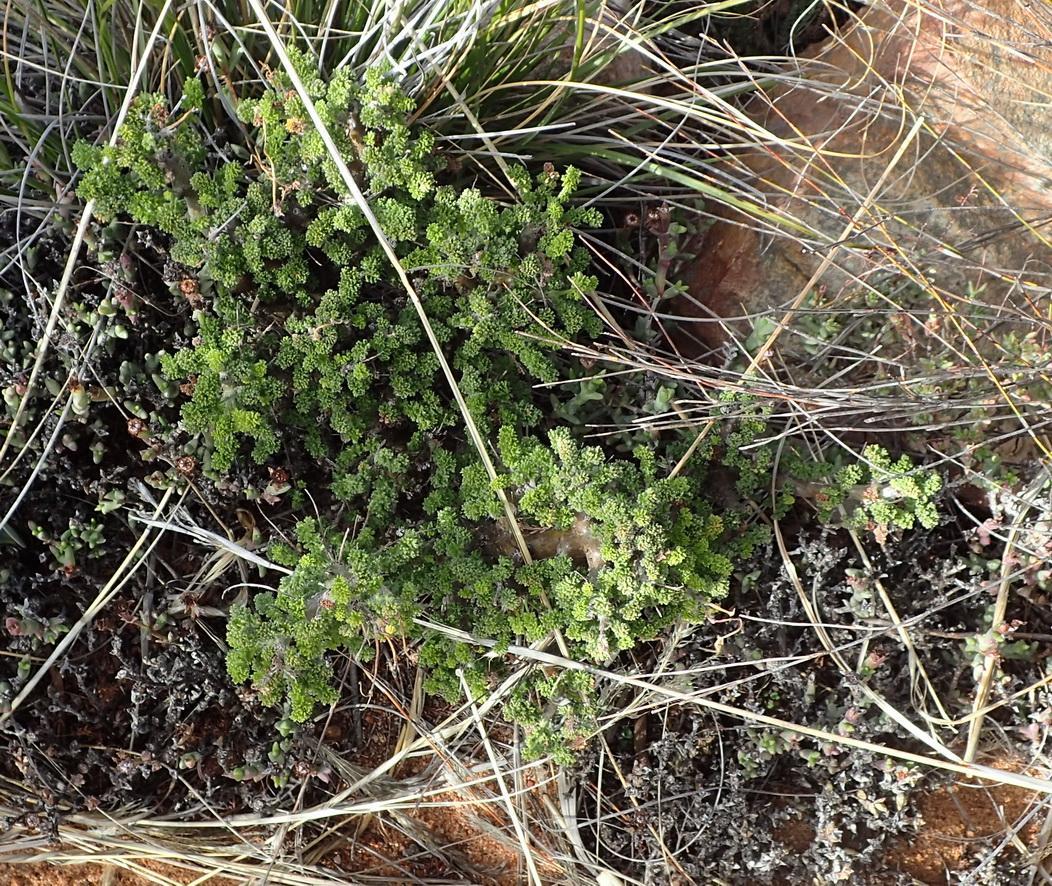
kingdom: Plantae
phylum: Tracheophyta
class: Magnoliopsida
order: Geraniales
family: Geraniaceae
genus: Pelargonium
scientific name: Pelargonium alternans
